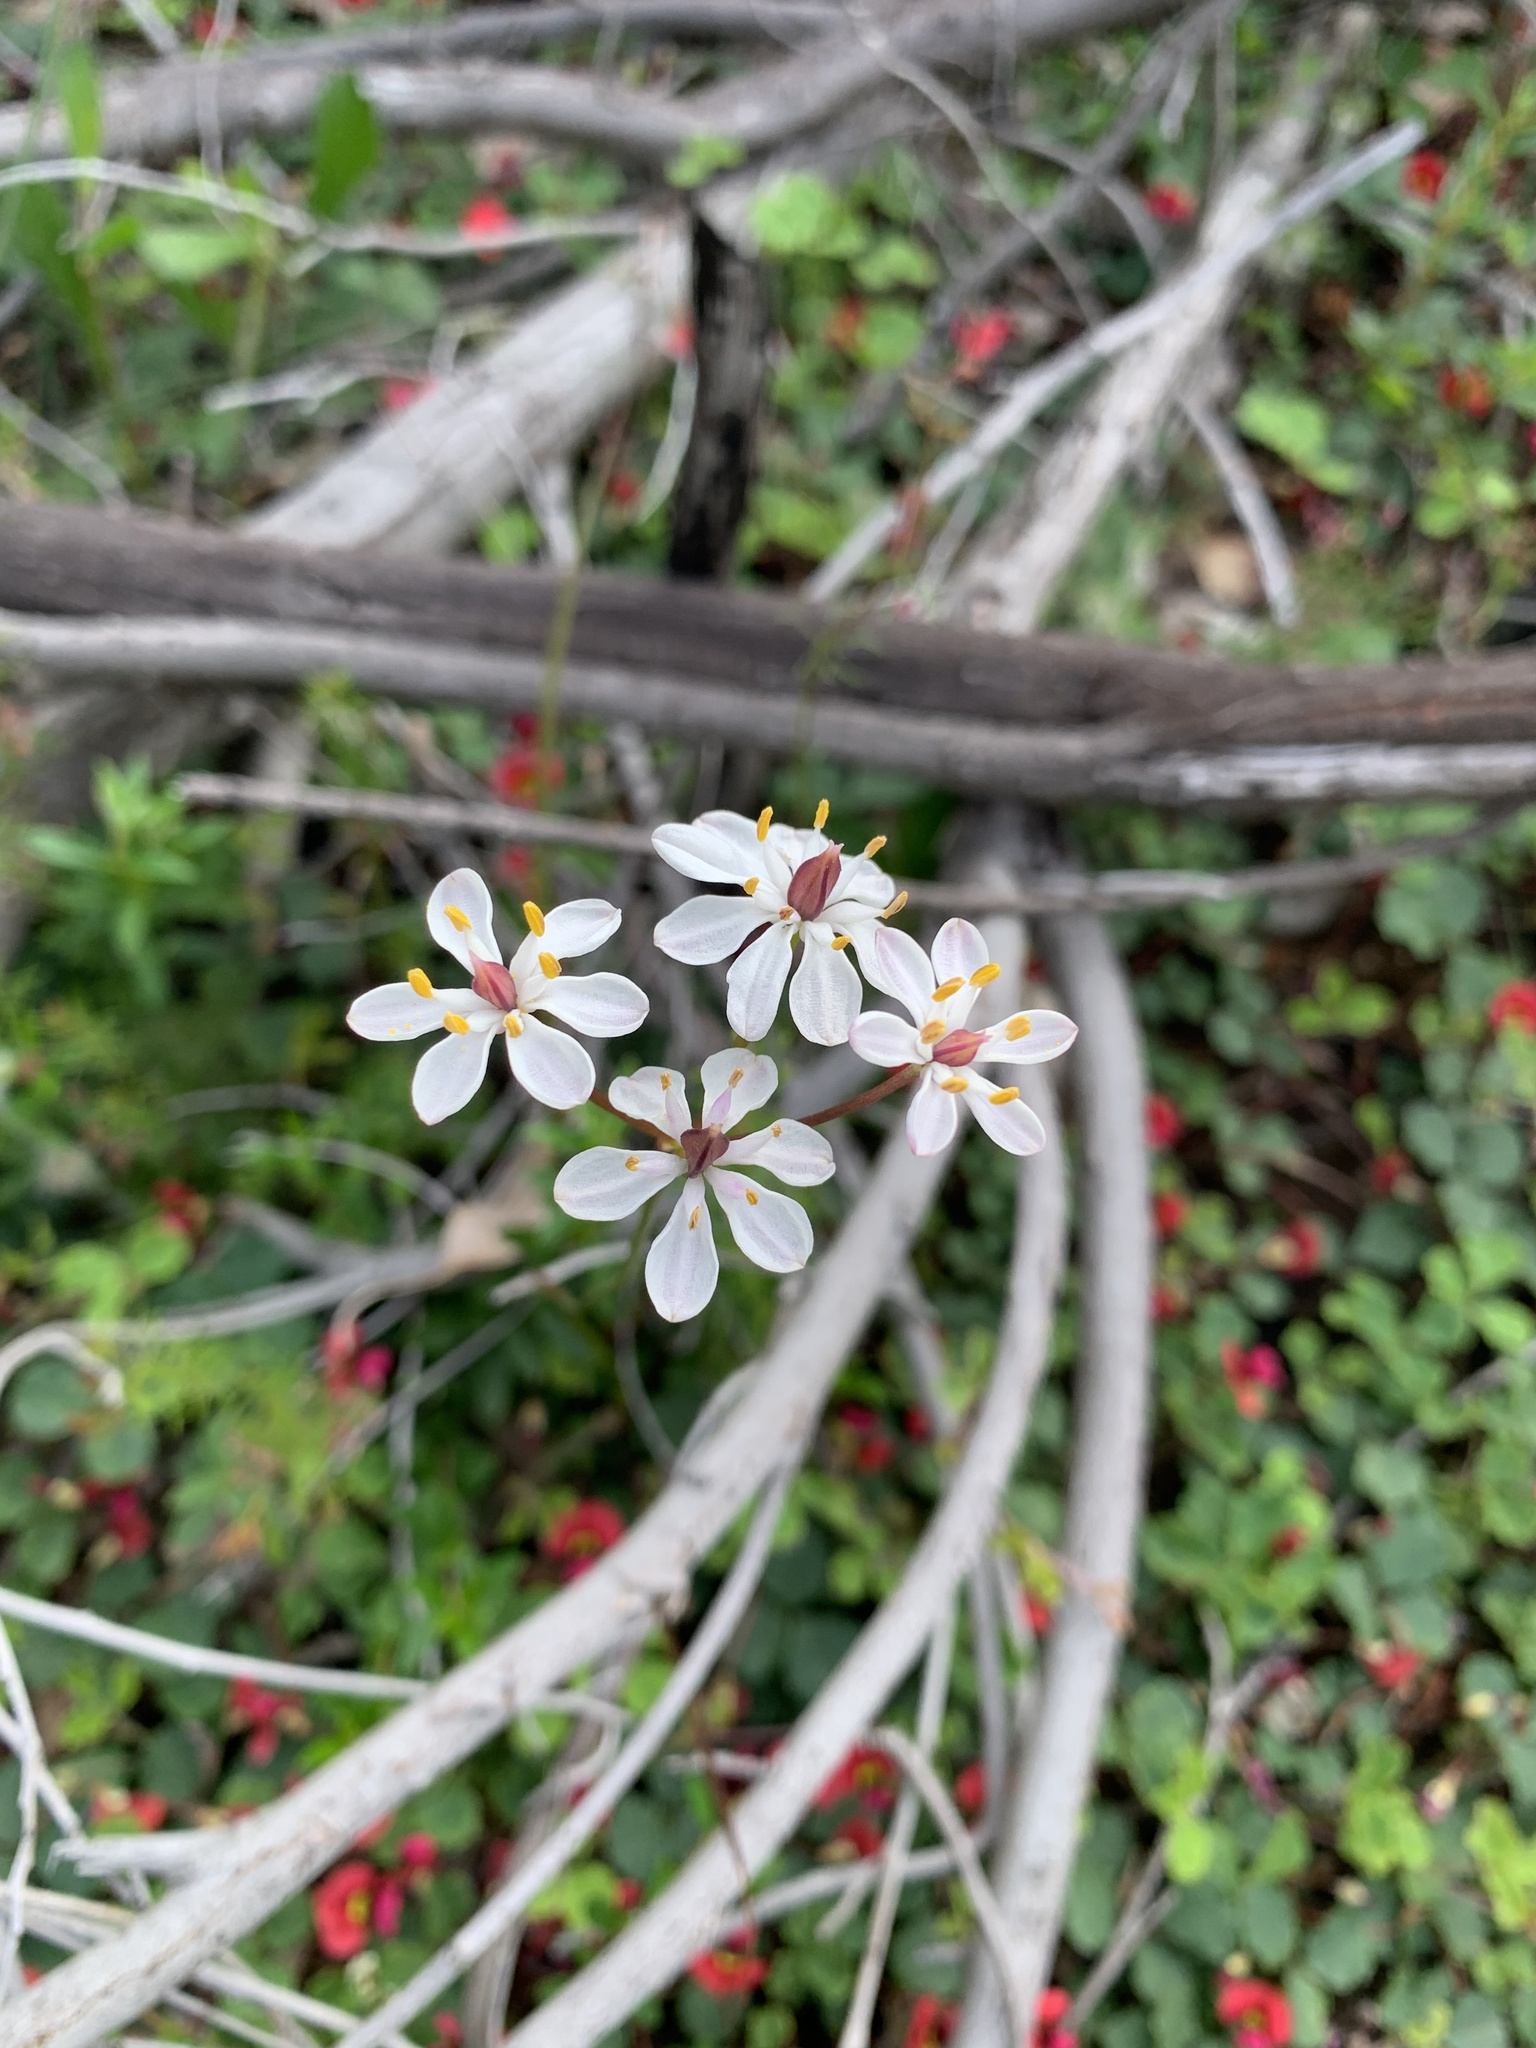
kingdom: Plantae
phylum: Tracheophyta
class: Liliopsida
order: Liliales
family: Colchicaceae
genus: Burchardia
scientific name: Burchardia congesta
